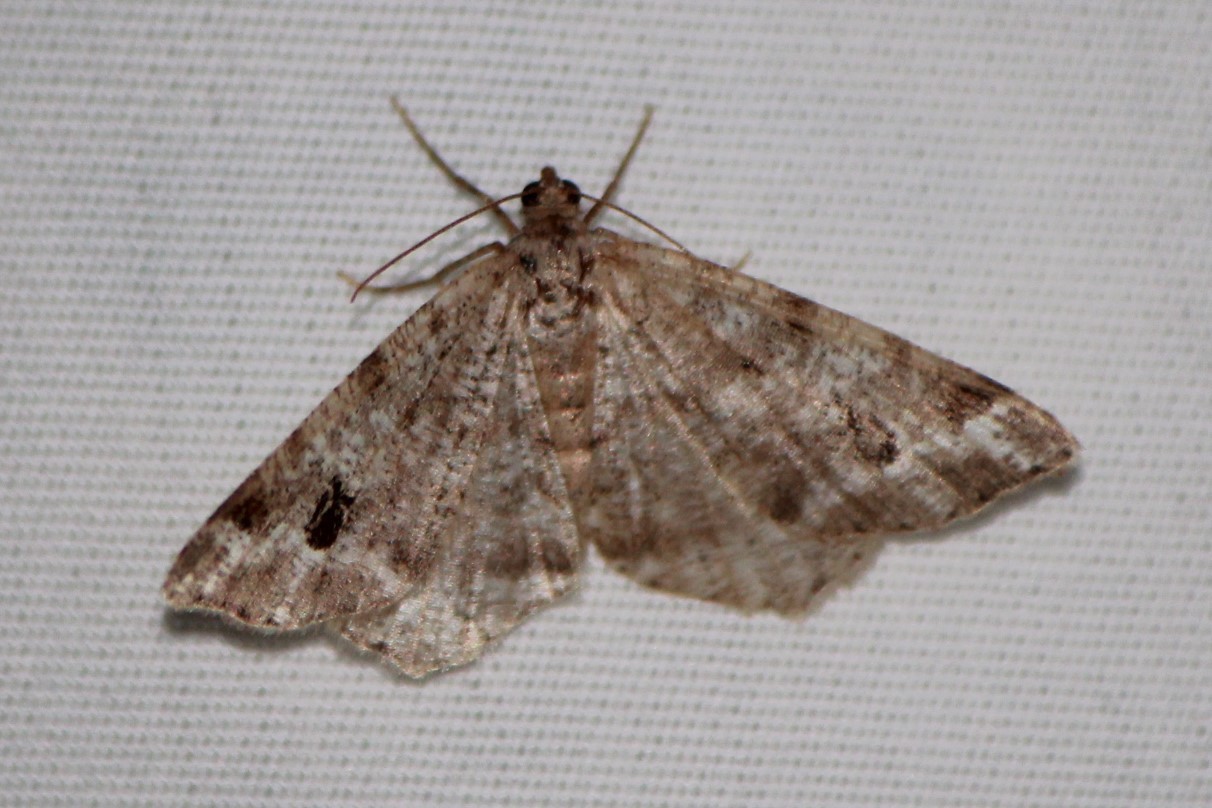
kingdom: Animalia
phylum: Arthropoda
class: Insecta
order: Lepidoptera
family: Geometridae
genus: Macaria
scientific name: Macaria pinistrobata
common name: White pine angle
